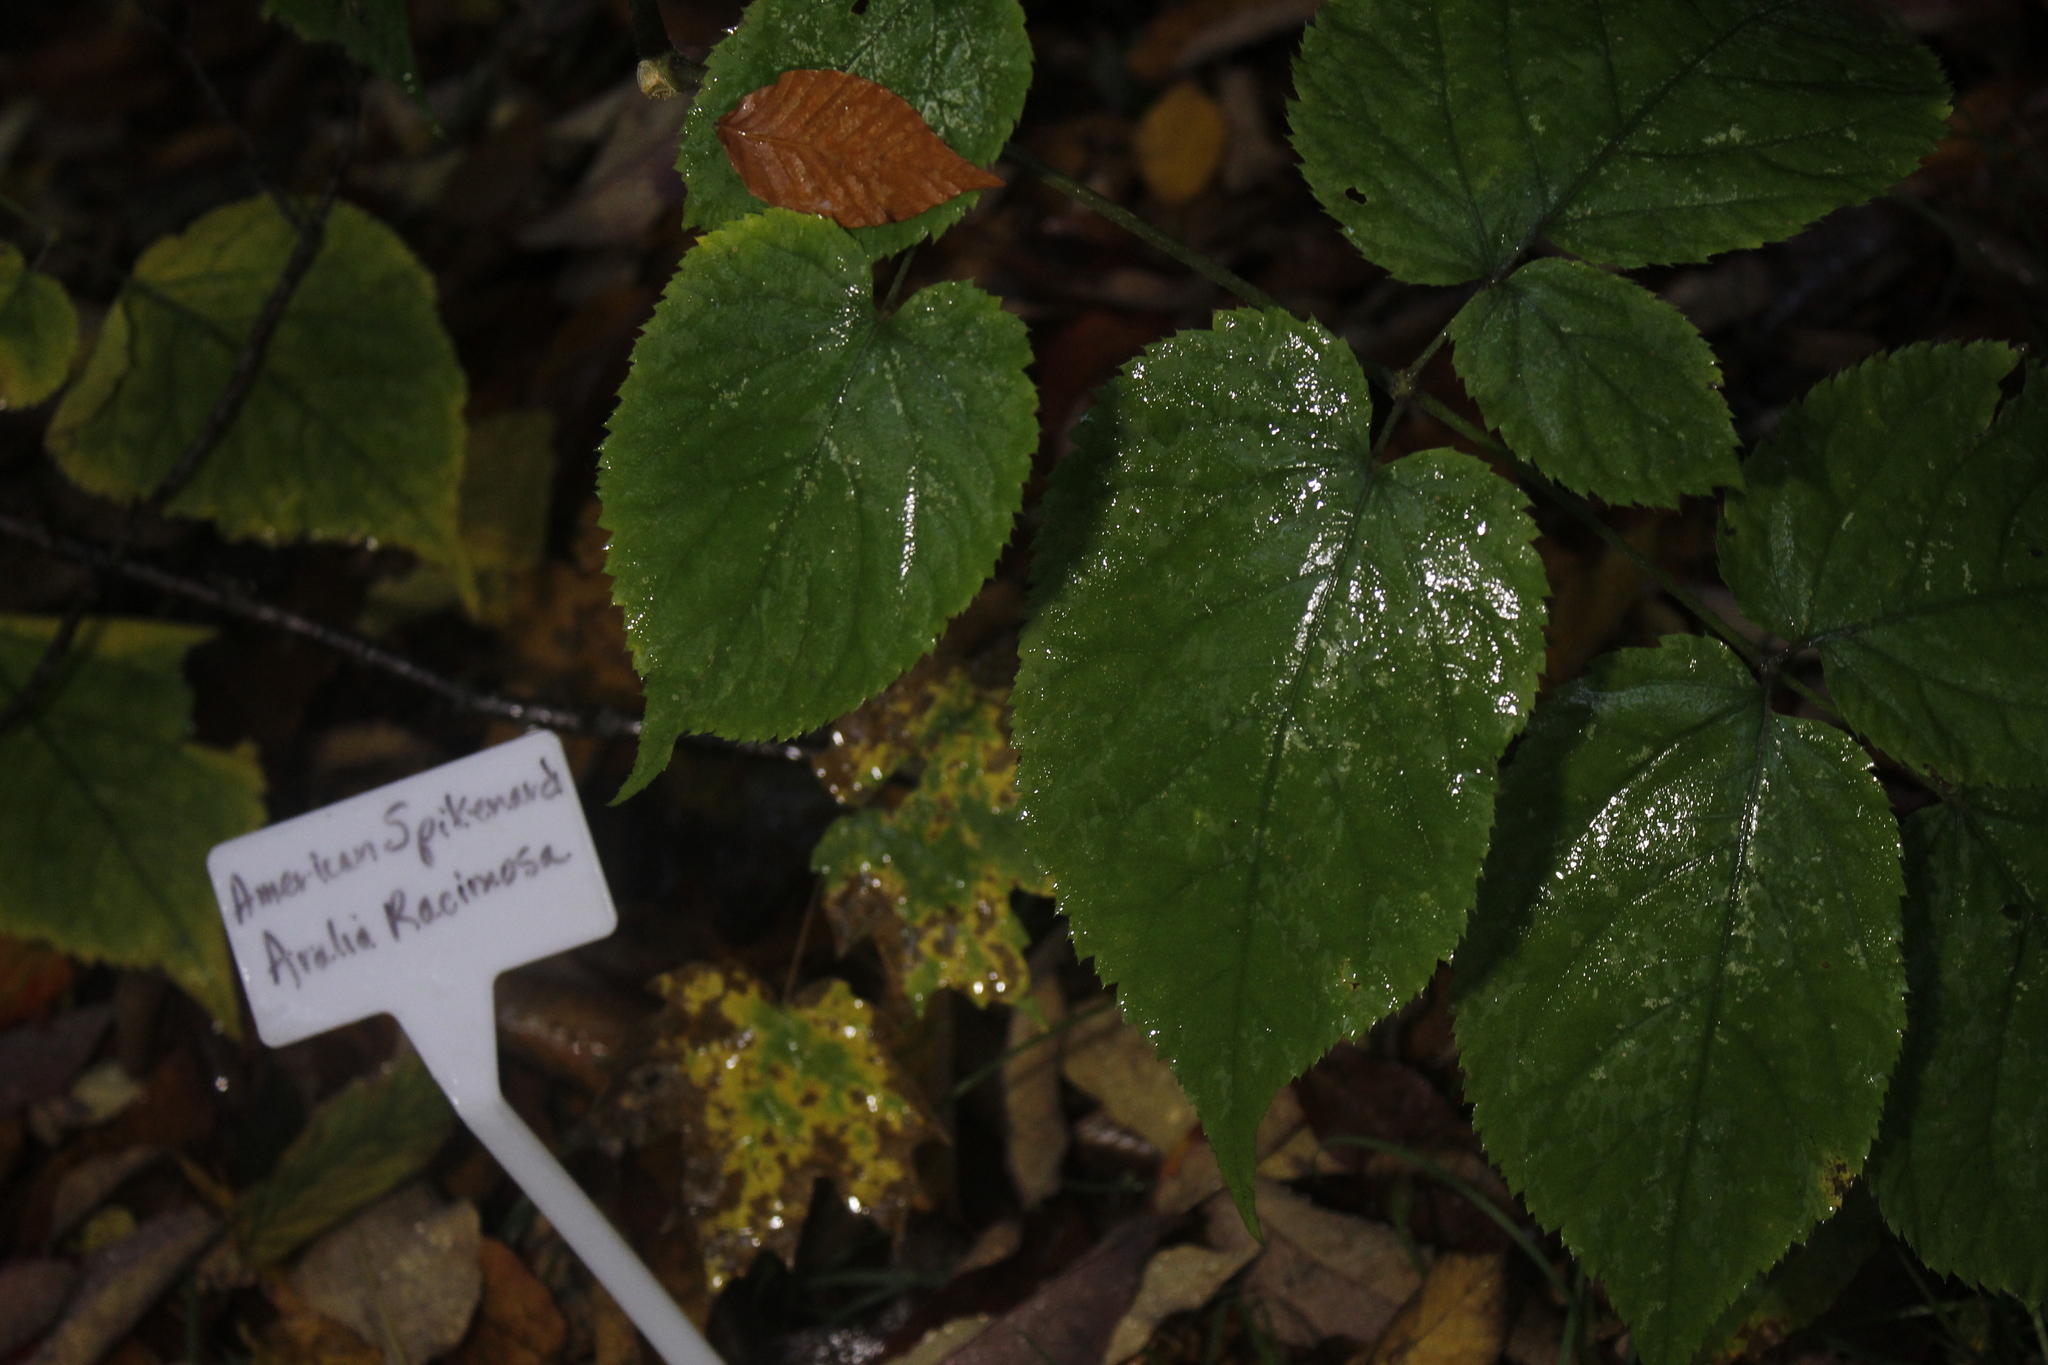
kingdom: Plantae
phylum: Tracheophyta
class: Magnoliopsida
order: Apiales
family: Araliaceae
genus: Aralia
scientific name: Aralia racemosa
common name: American-spikenard
